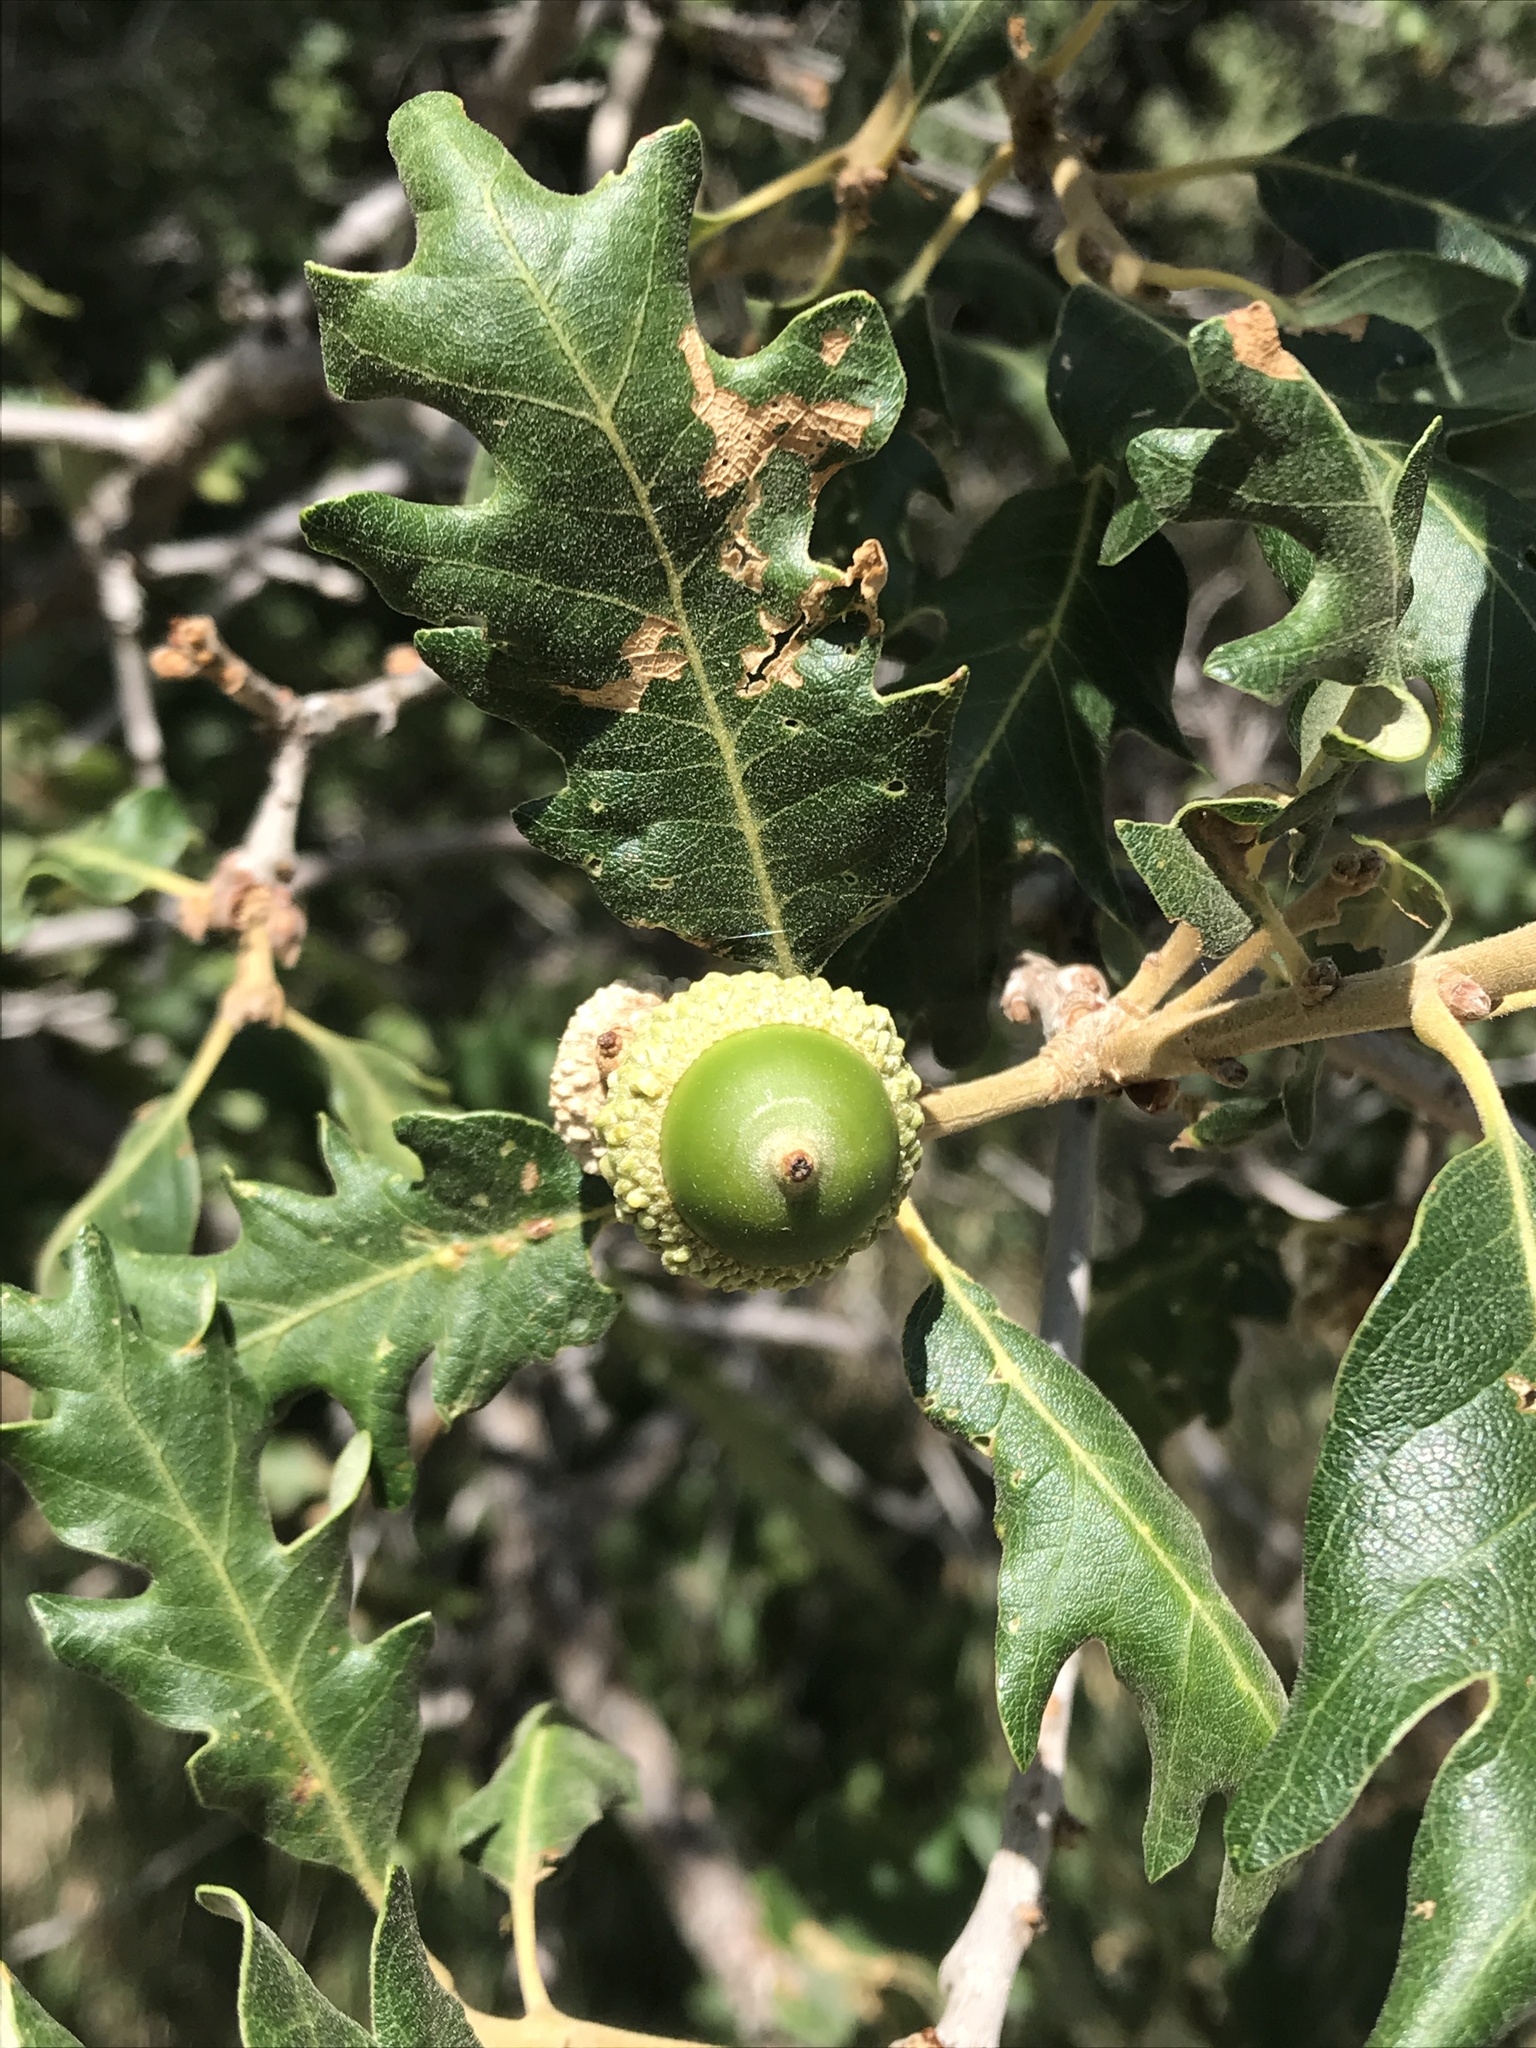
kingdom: Plantae
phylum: Tracheophyta
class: Magnoliopsida
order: Fagales
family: Fagaceae
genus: Quercus
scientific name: Quercus gambelii
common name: Gambel oak
